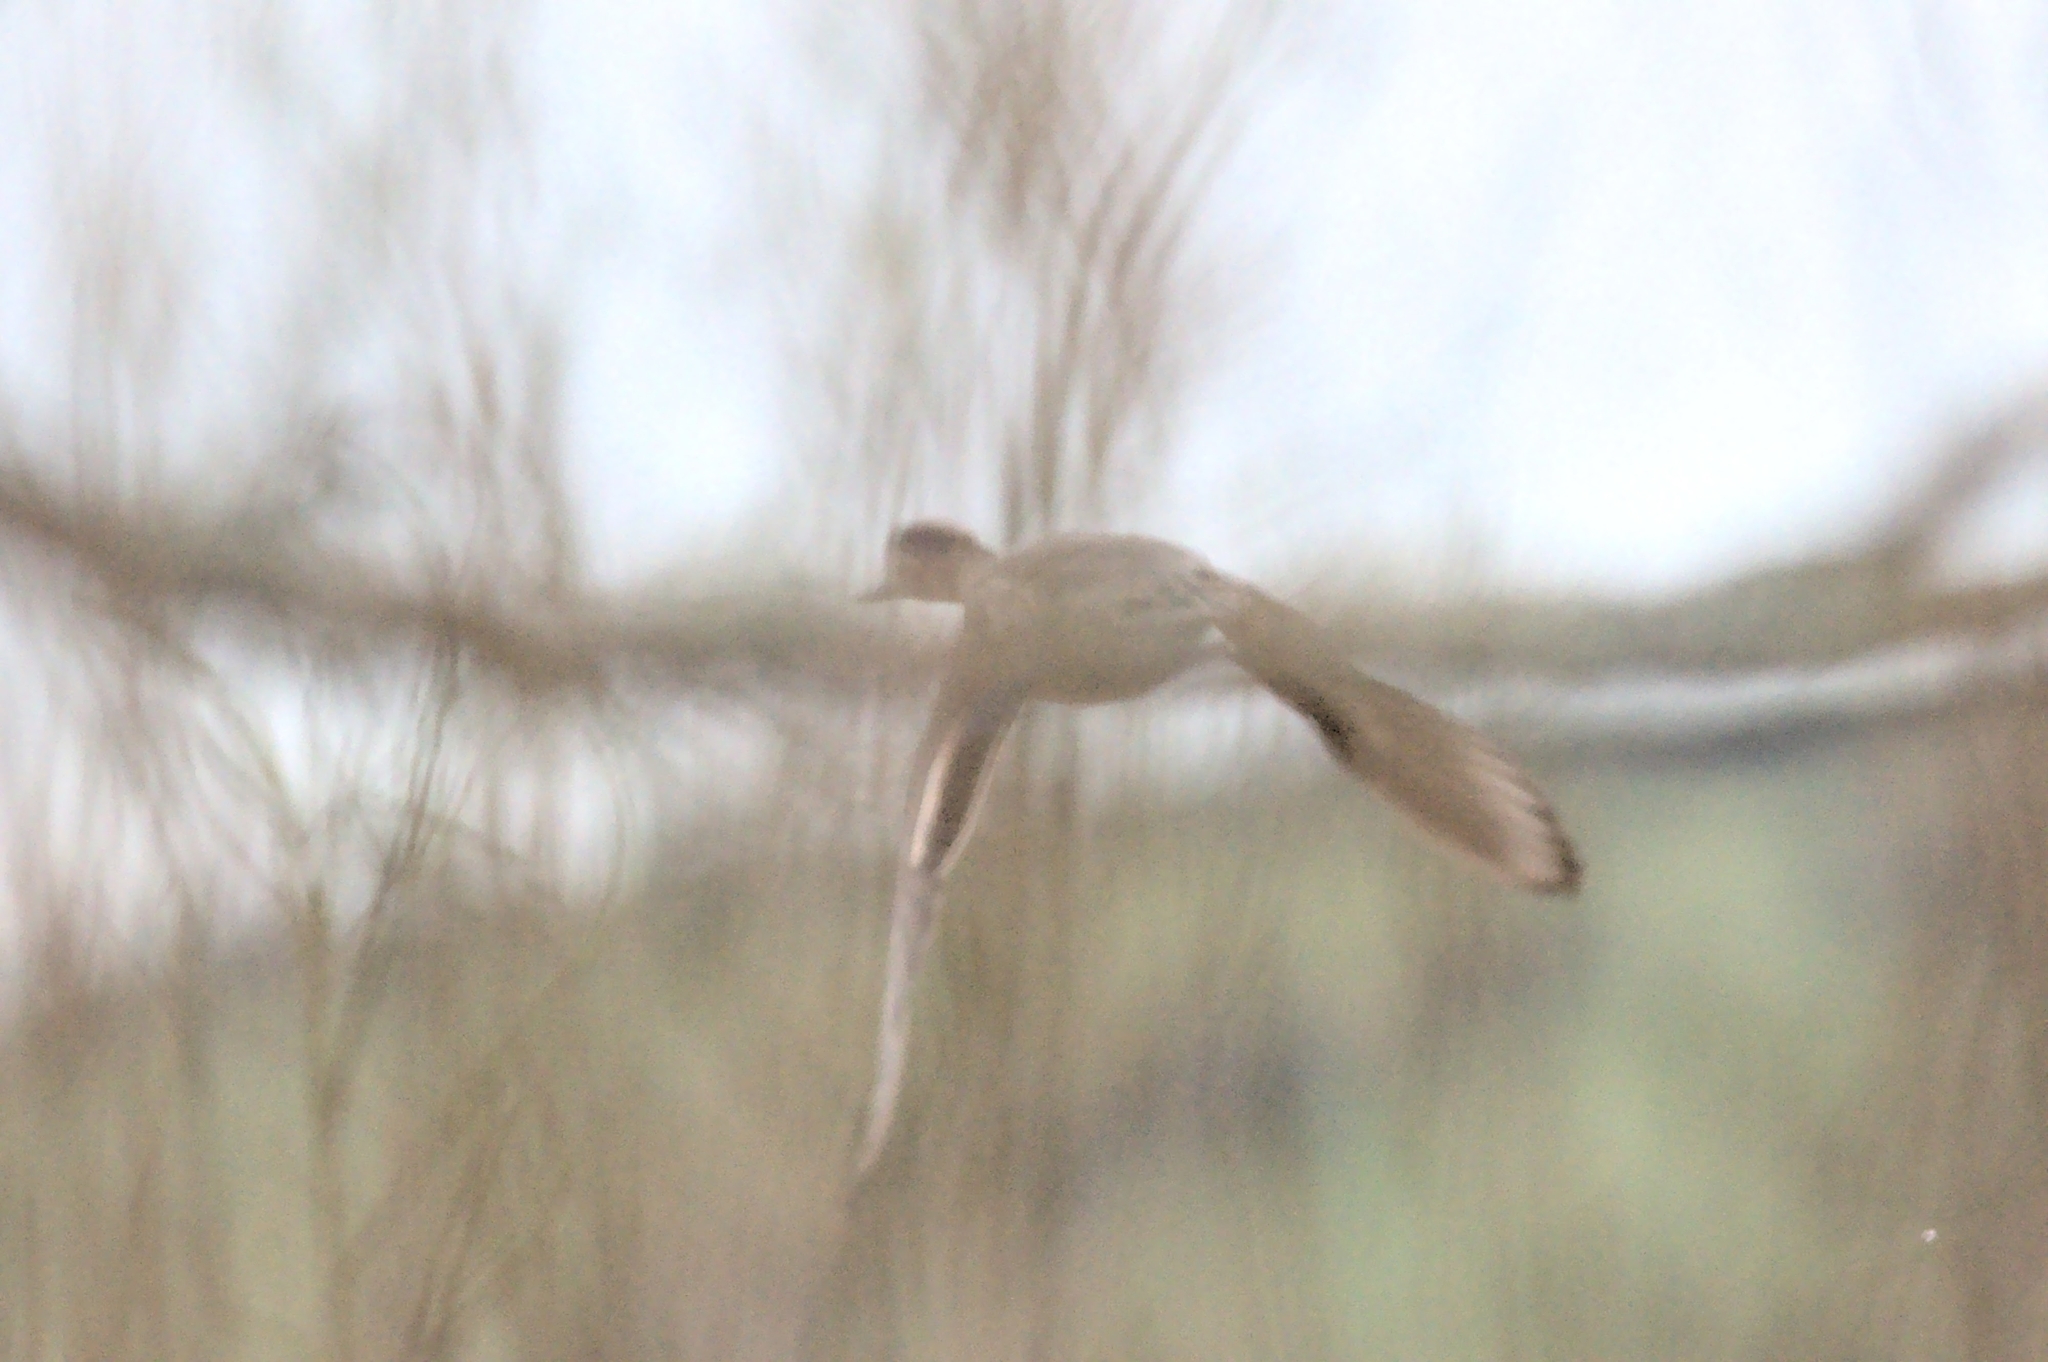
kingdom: Animalia
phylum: Chordata
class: Aves
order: Anseriformes
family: Anatidae
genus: Anas
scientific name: Anas crecca
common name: Eurasian teal
